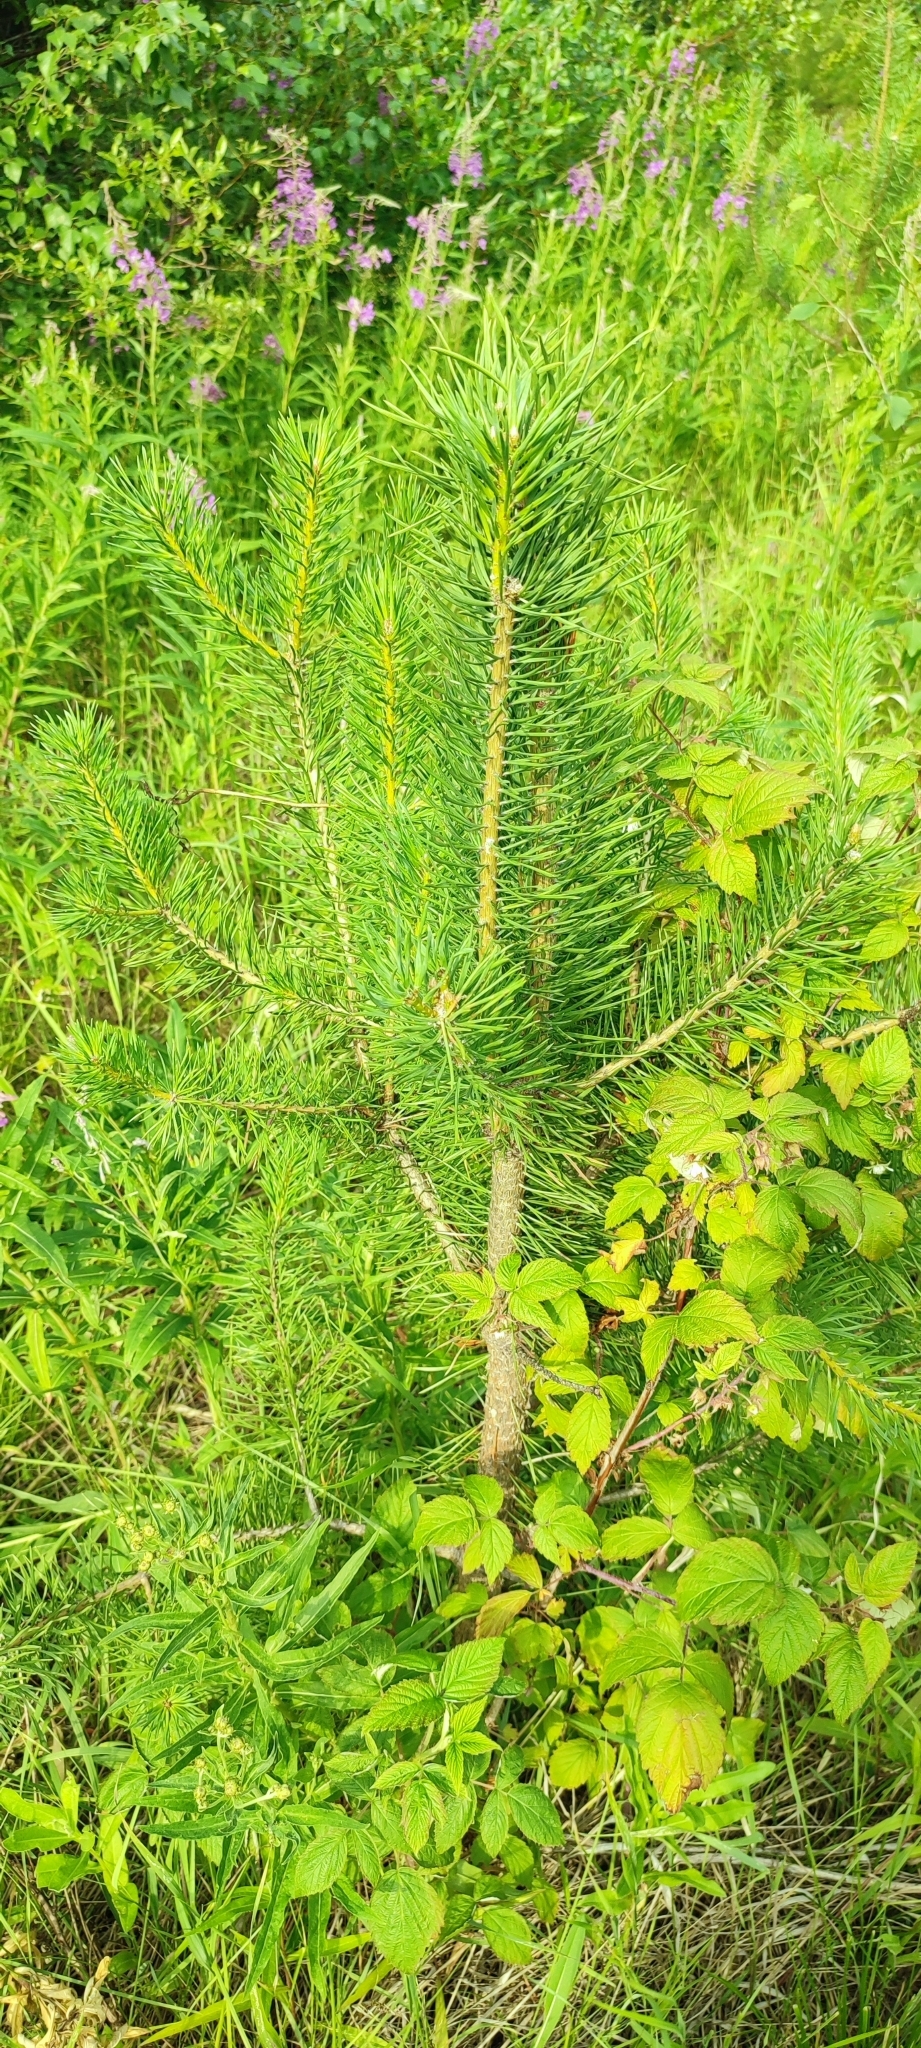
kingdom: Plantae
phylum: Tracheophyta
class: Pinopsida
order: Pinales
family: Pinaceae
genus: Pinus
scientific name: Pinus sylvestris
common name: Scots pine
